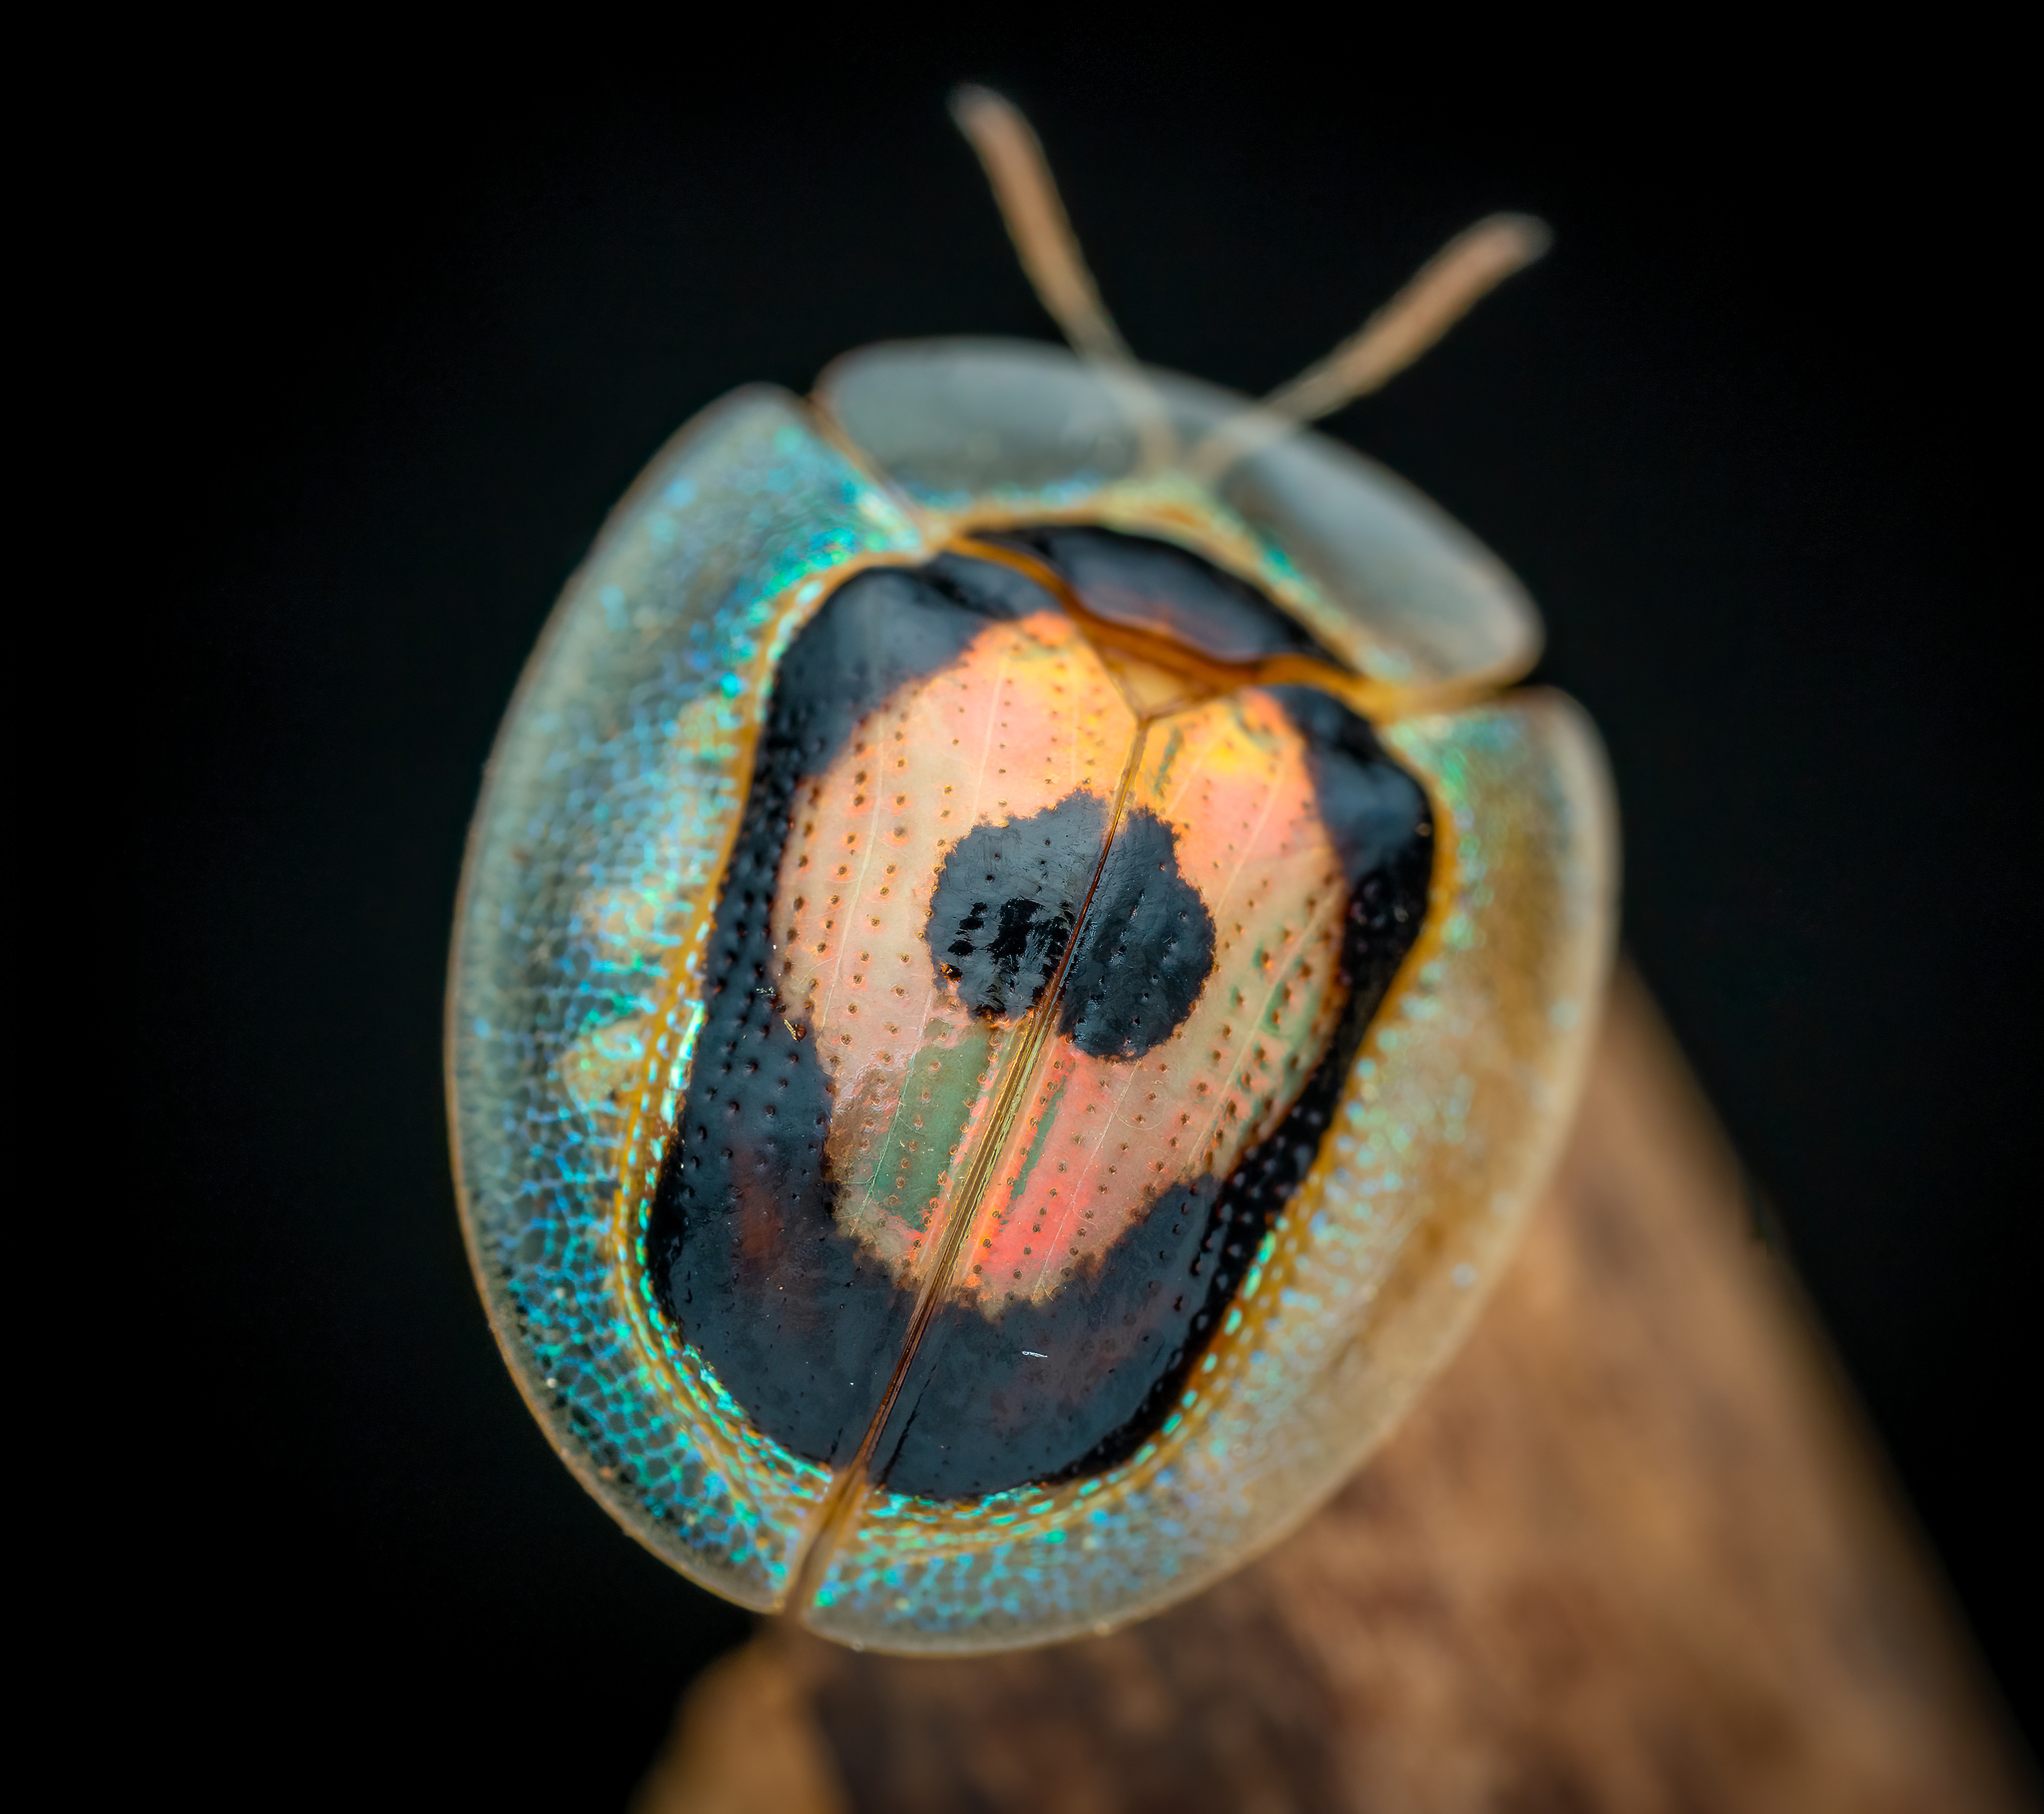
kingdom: Animalia
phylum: Arthropoda
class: Insecta
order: Coleoptera
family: Chrysomelidae
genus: Tapinaspis
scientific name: Tapinaspis wesmaeli
